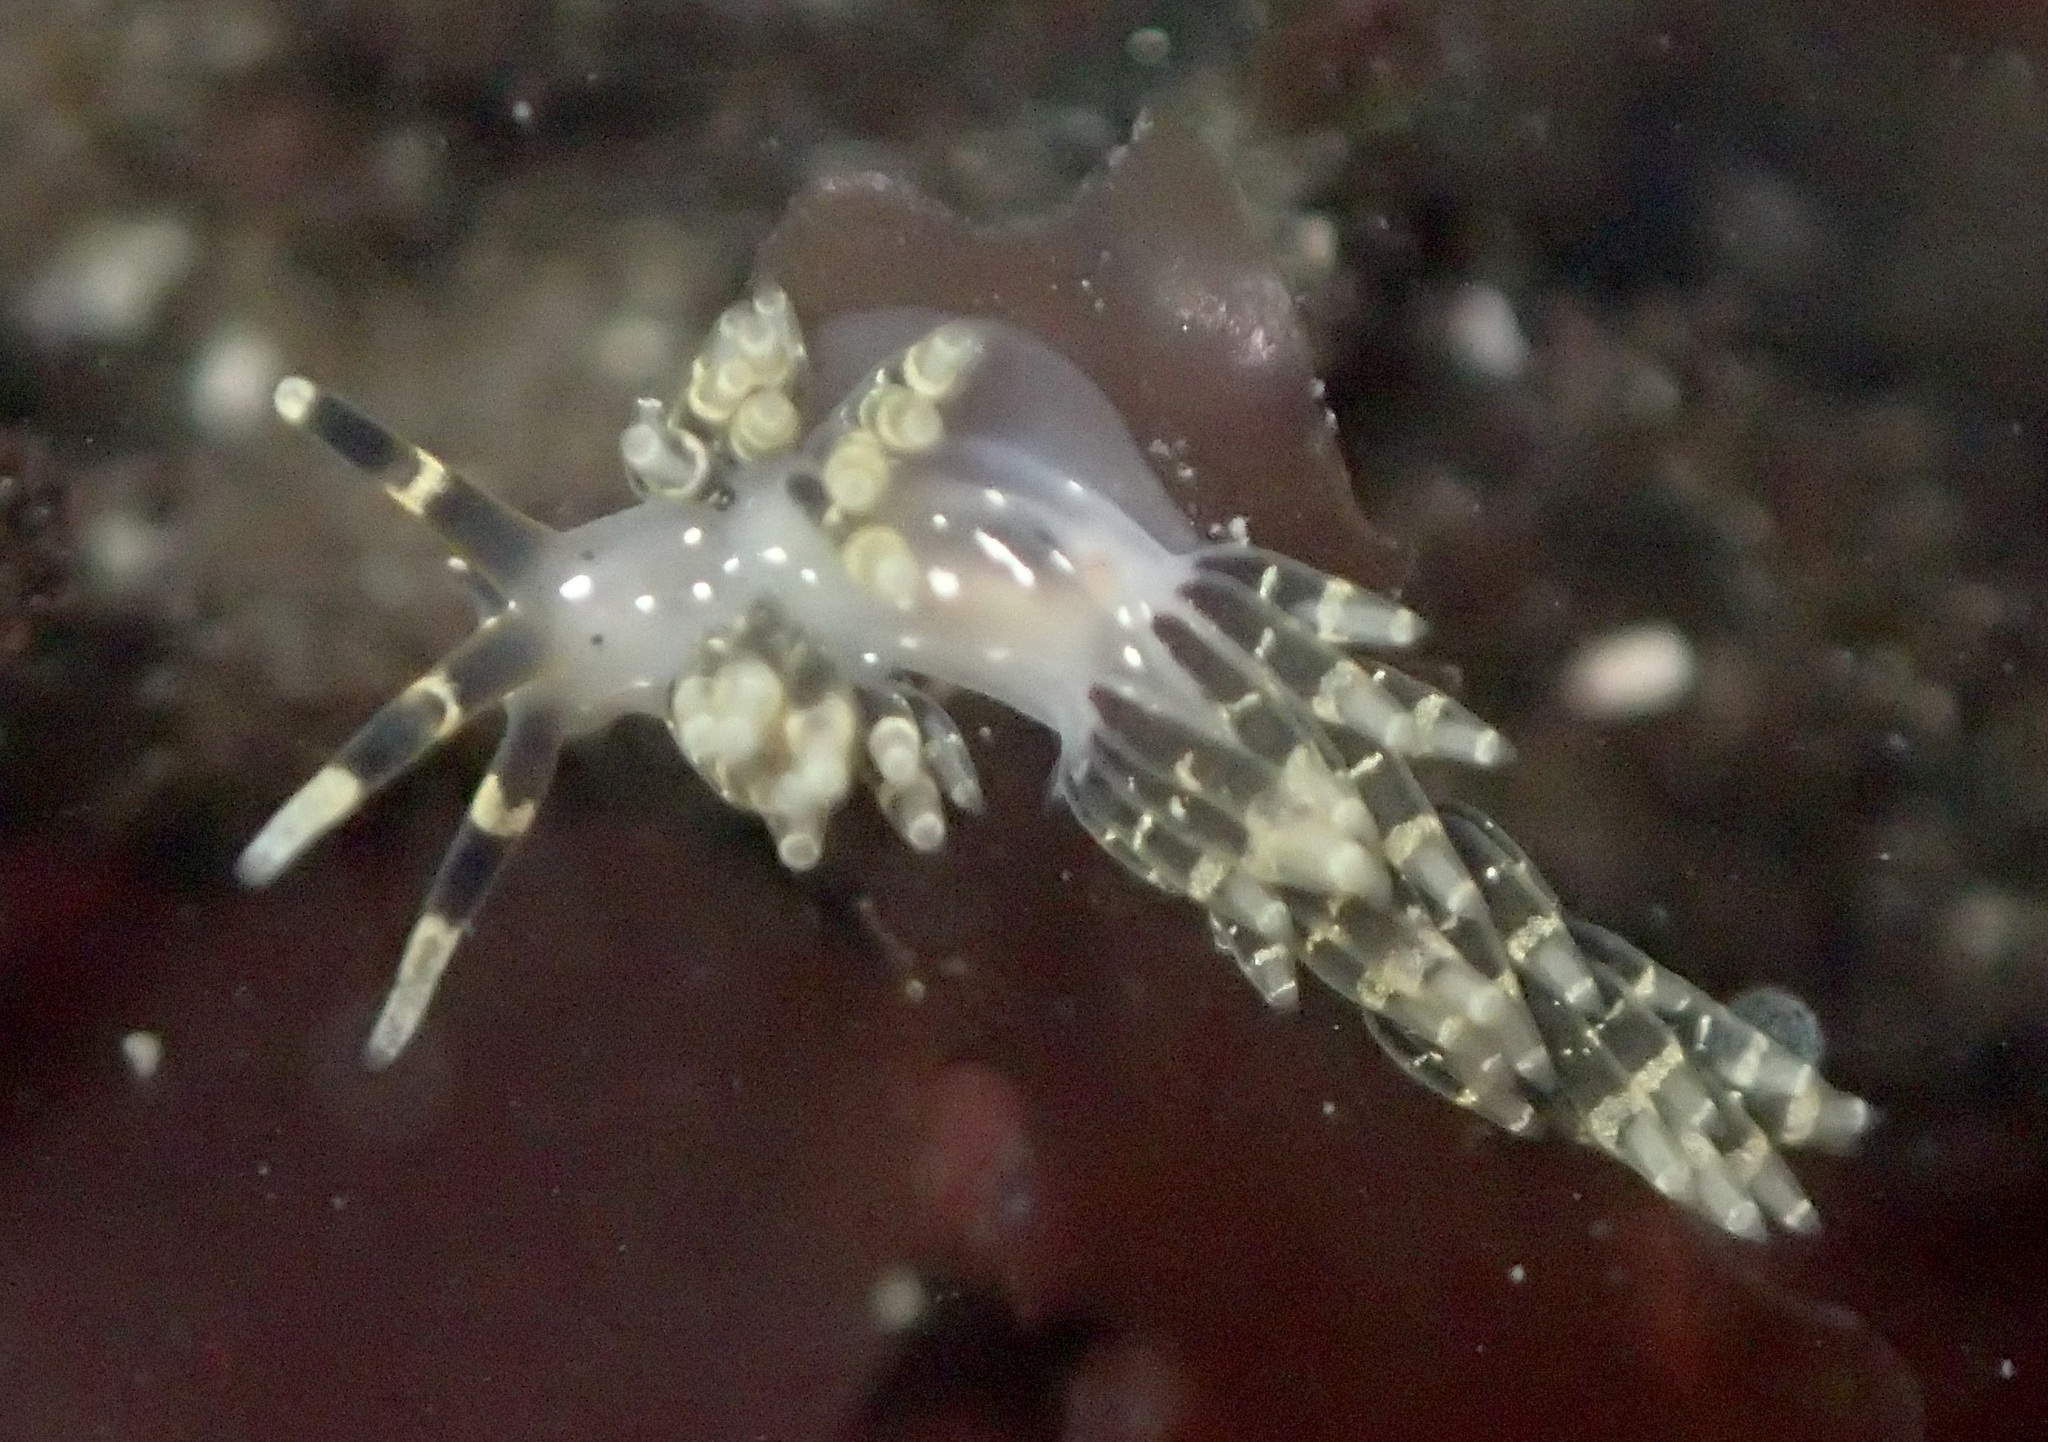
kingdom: Animalia
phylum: Mollusca
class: Gastropoda
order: Nudibranchia
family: Abronicidae
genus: Abronica
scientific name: Abronica abronia
